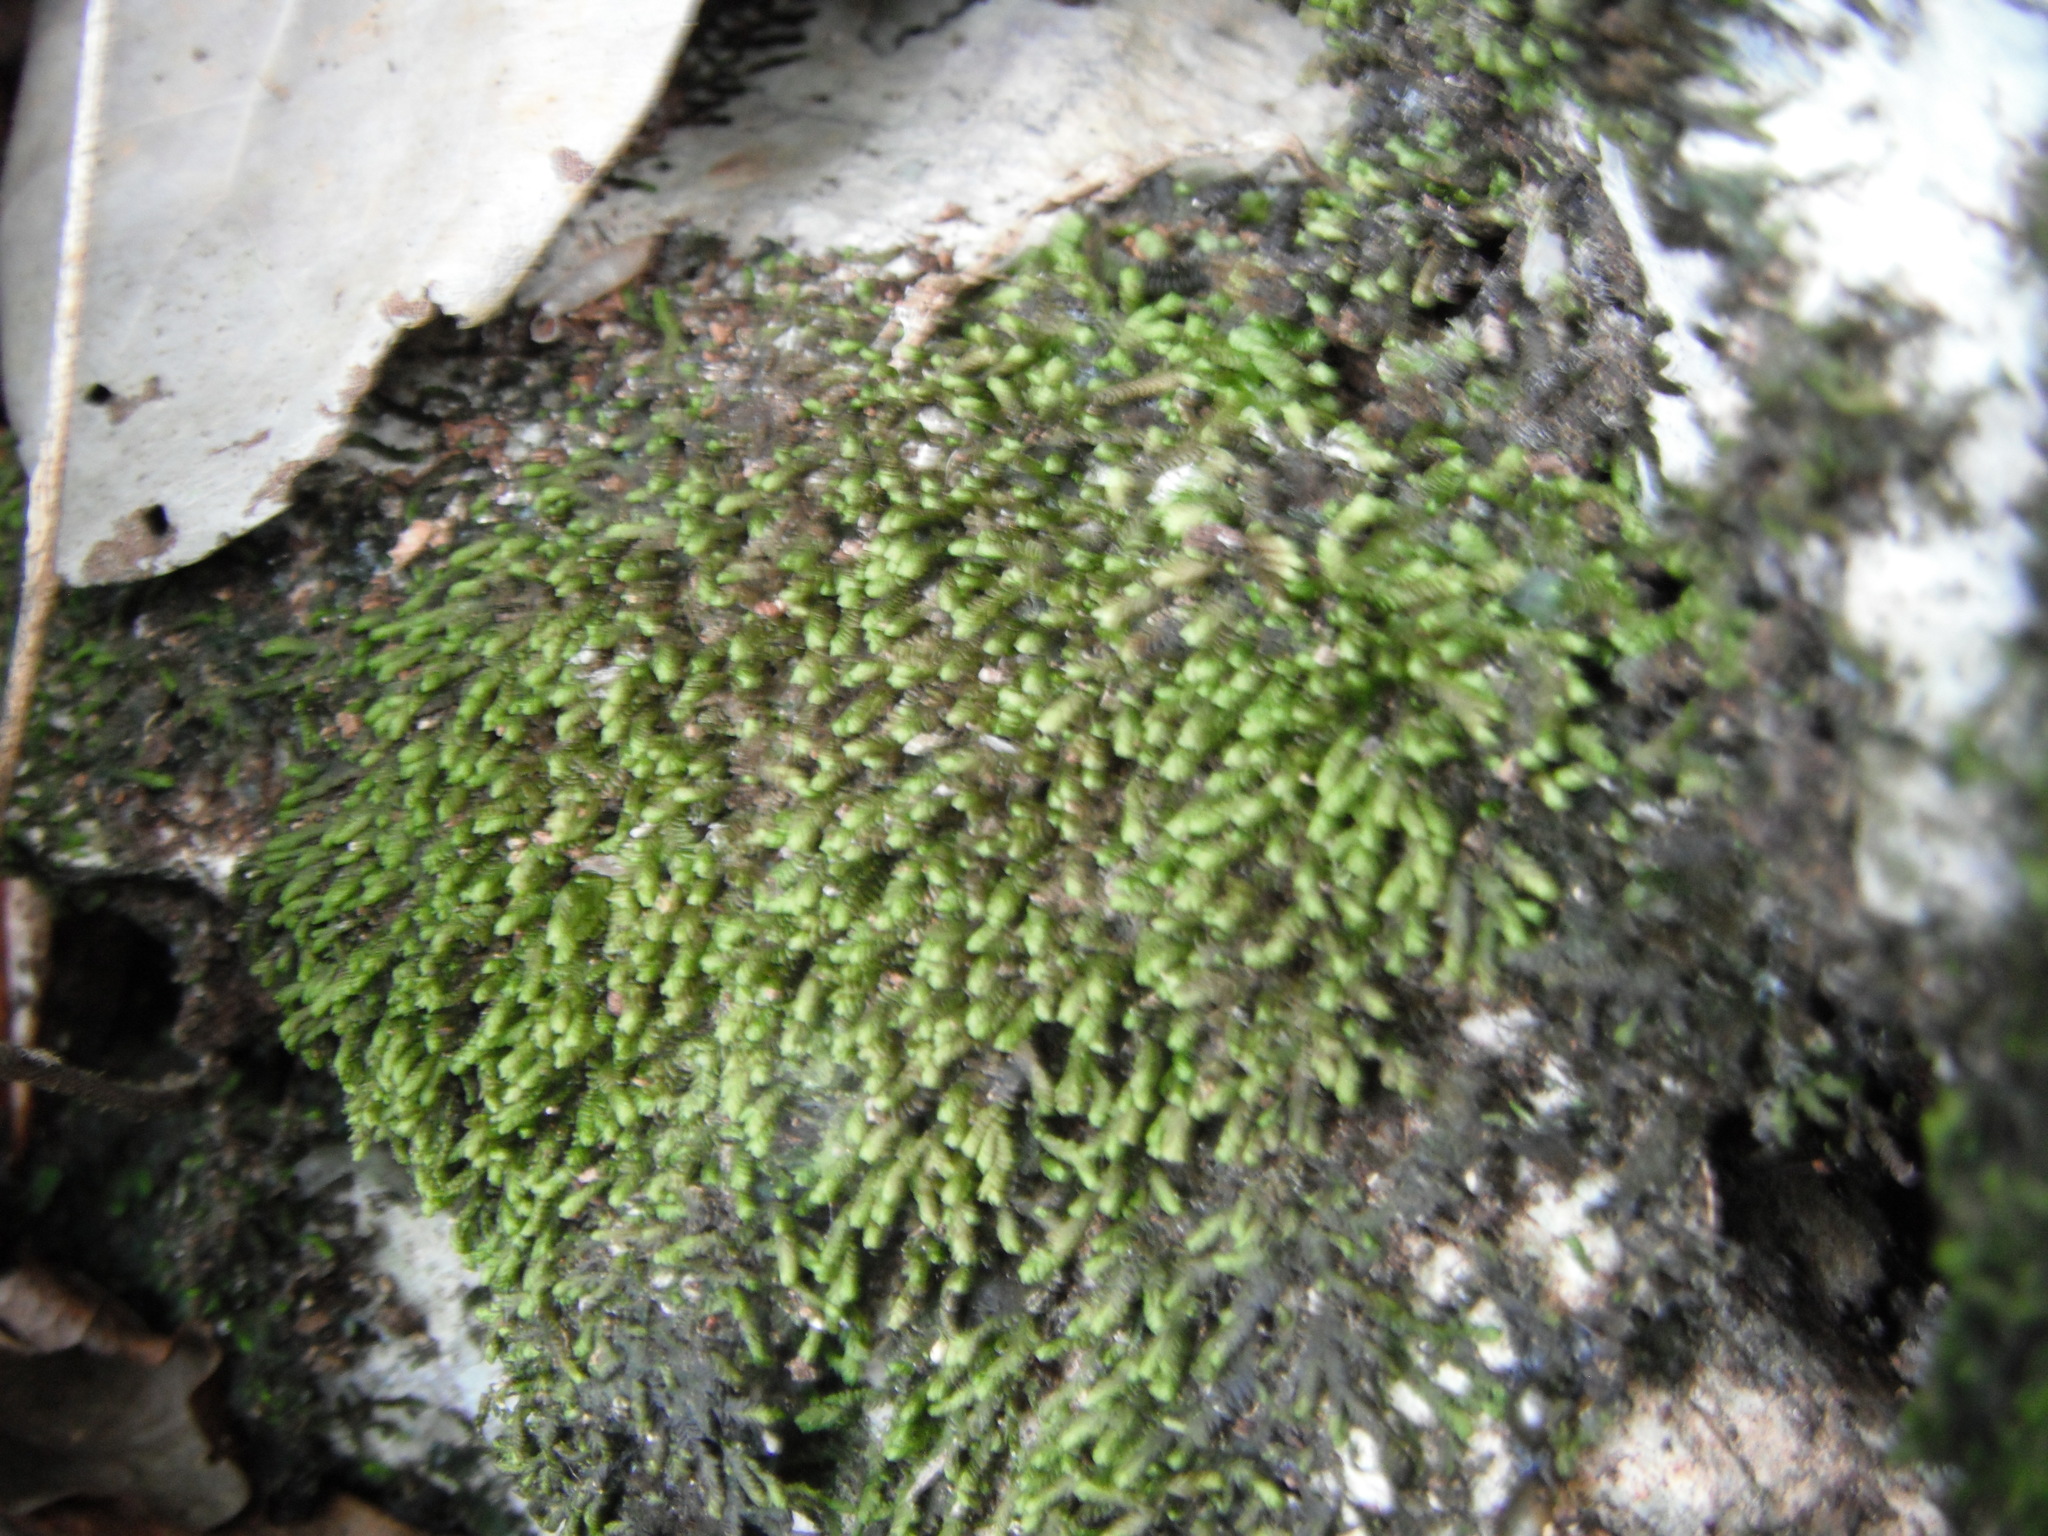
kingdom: Plantae
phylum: Marchantiophyta
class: Jungermanniopsida
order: Jungermanniales
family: Lepidoziaceae
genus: Bazzania
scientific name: Bazzania trilobata
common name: Three-lobed whipwort
